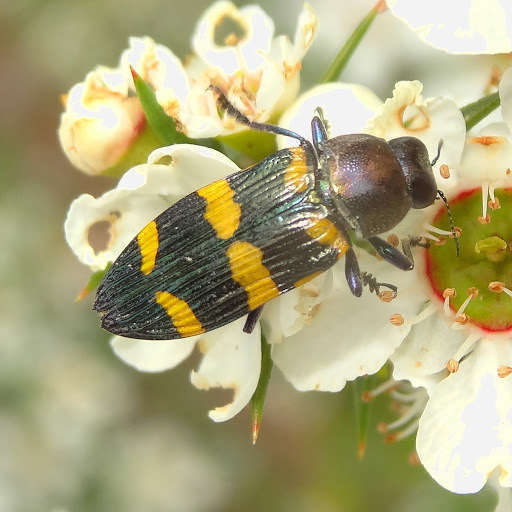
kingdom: Animalia
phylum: Arthropoda
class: Insecta
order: Coleoptera
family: Buprestidae
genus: Castiarina
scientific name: Castiarina rectifasciata
